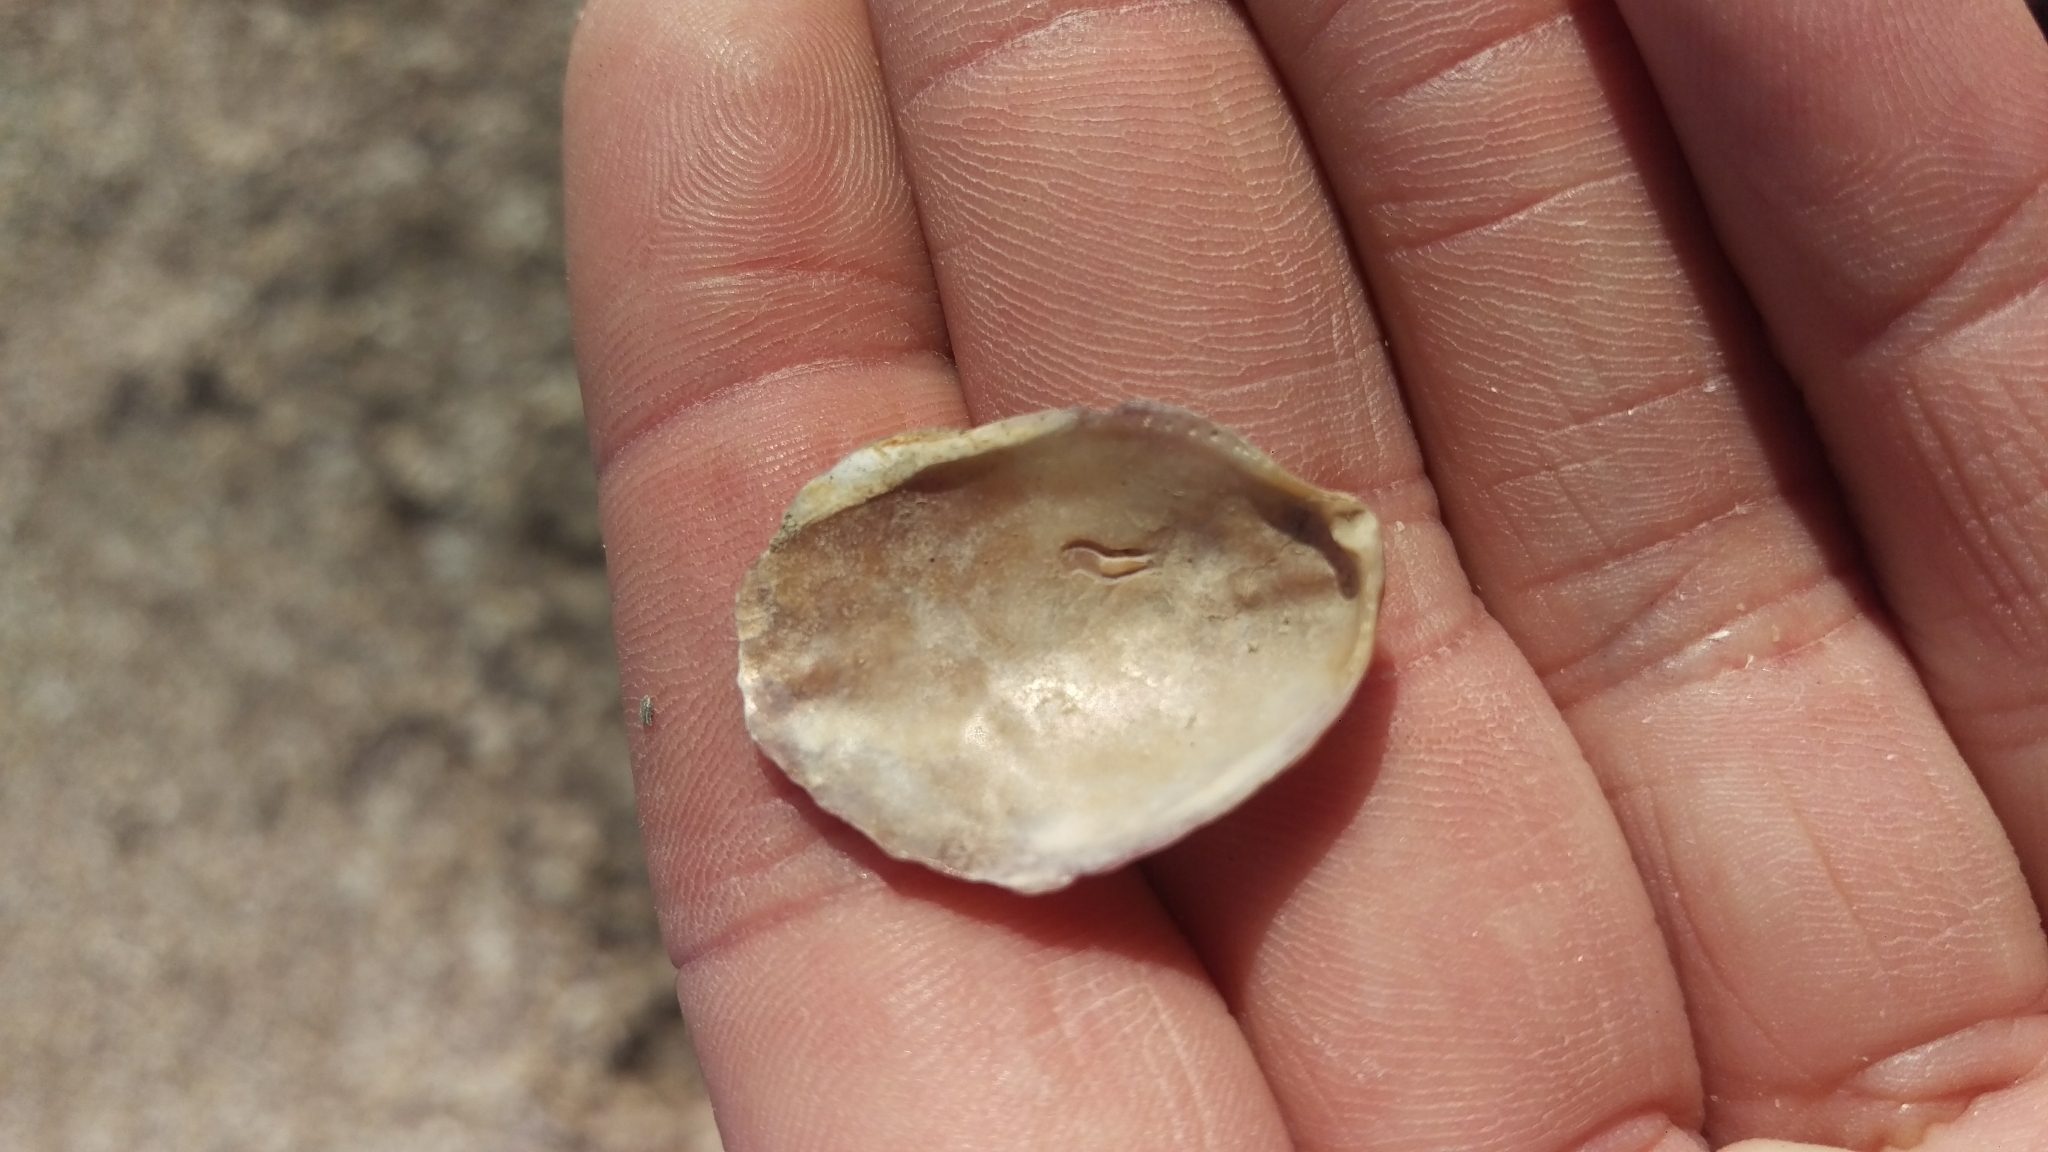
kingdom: Animalia
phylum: Mollusca
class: Bivalvia
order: Ostreida
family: Ostreidae
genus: Ostrea
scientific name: Ostrea lurida
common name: Olympia flat oyster
